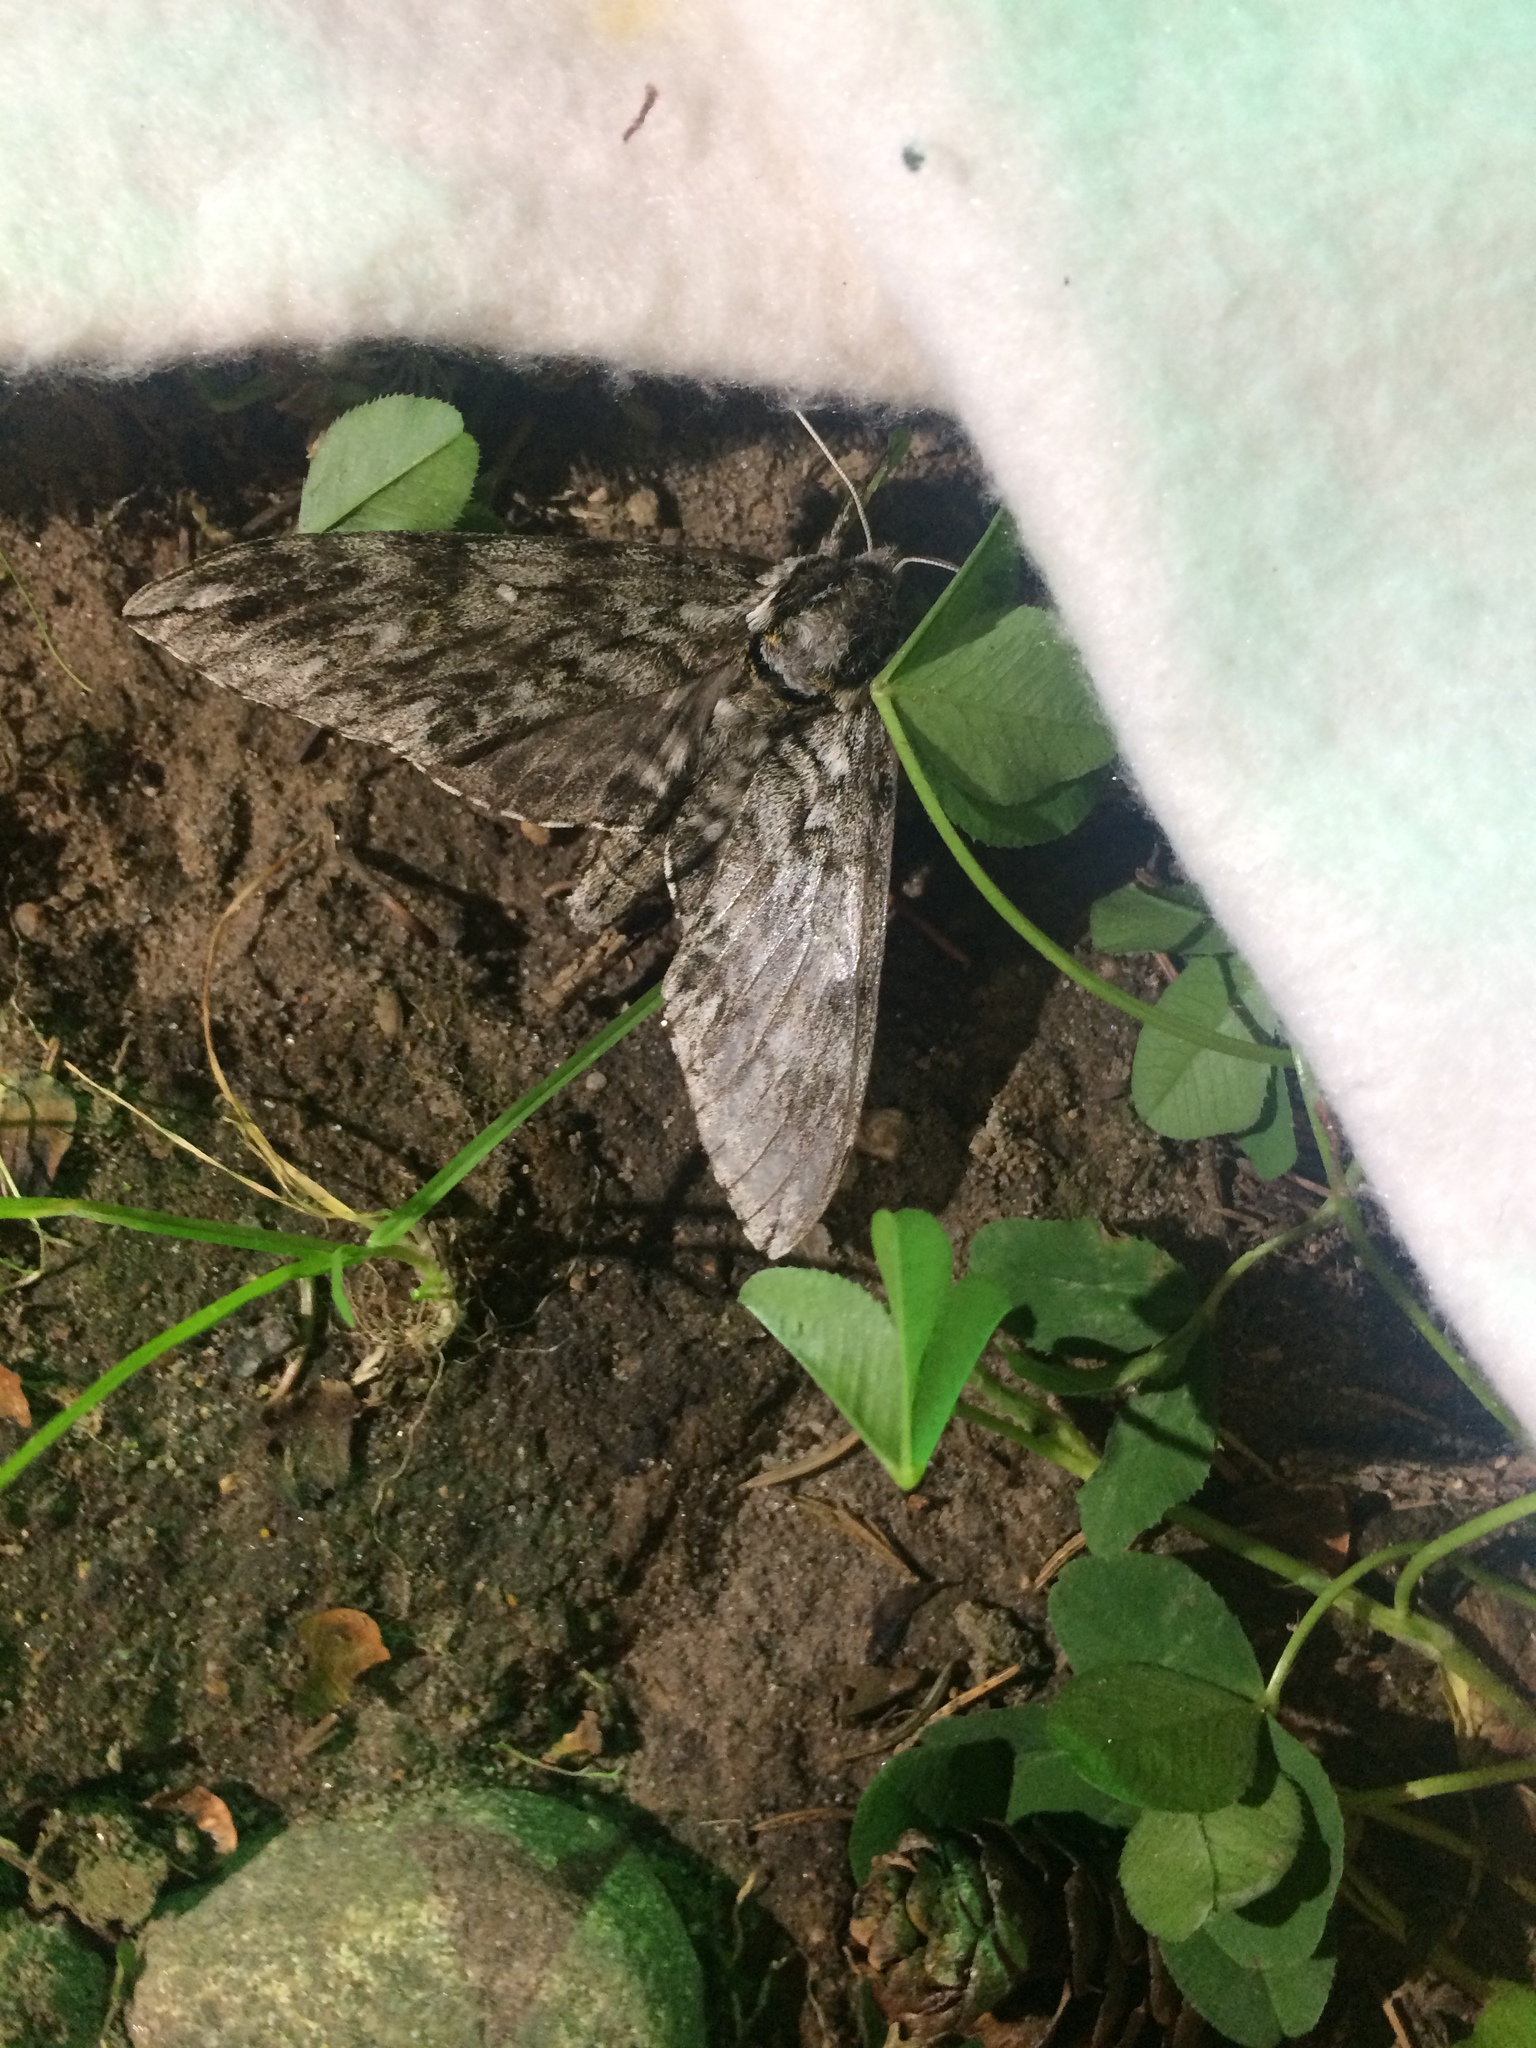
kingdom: Animalia
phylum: Arthropoda
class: Insecta
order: Lepidoptera
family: Sphingidae
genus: Ceratomia
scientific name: Ceratomia undulosa
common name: Waved sphinx
